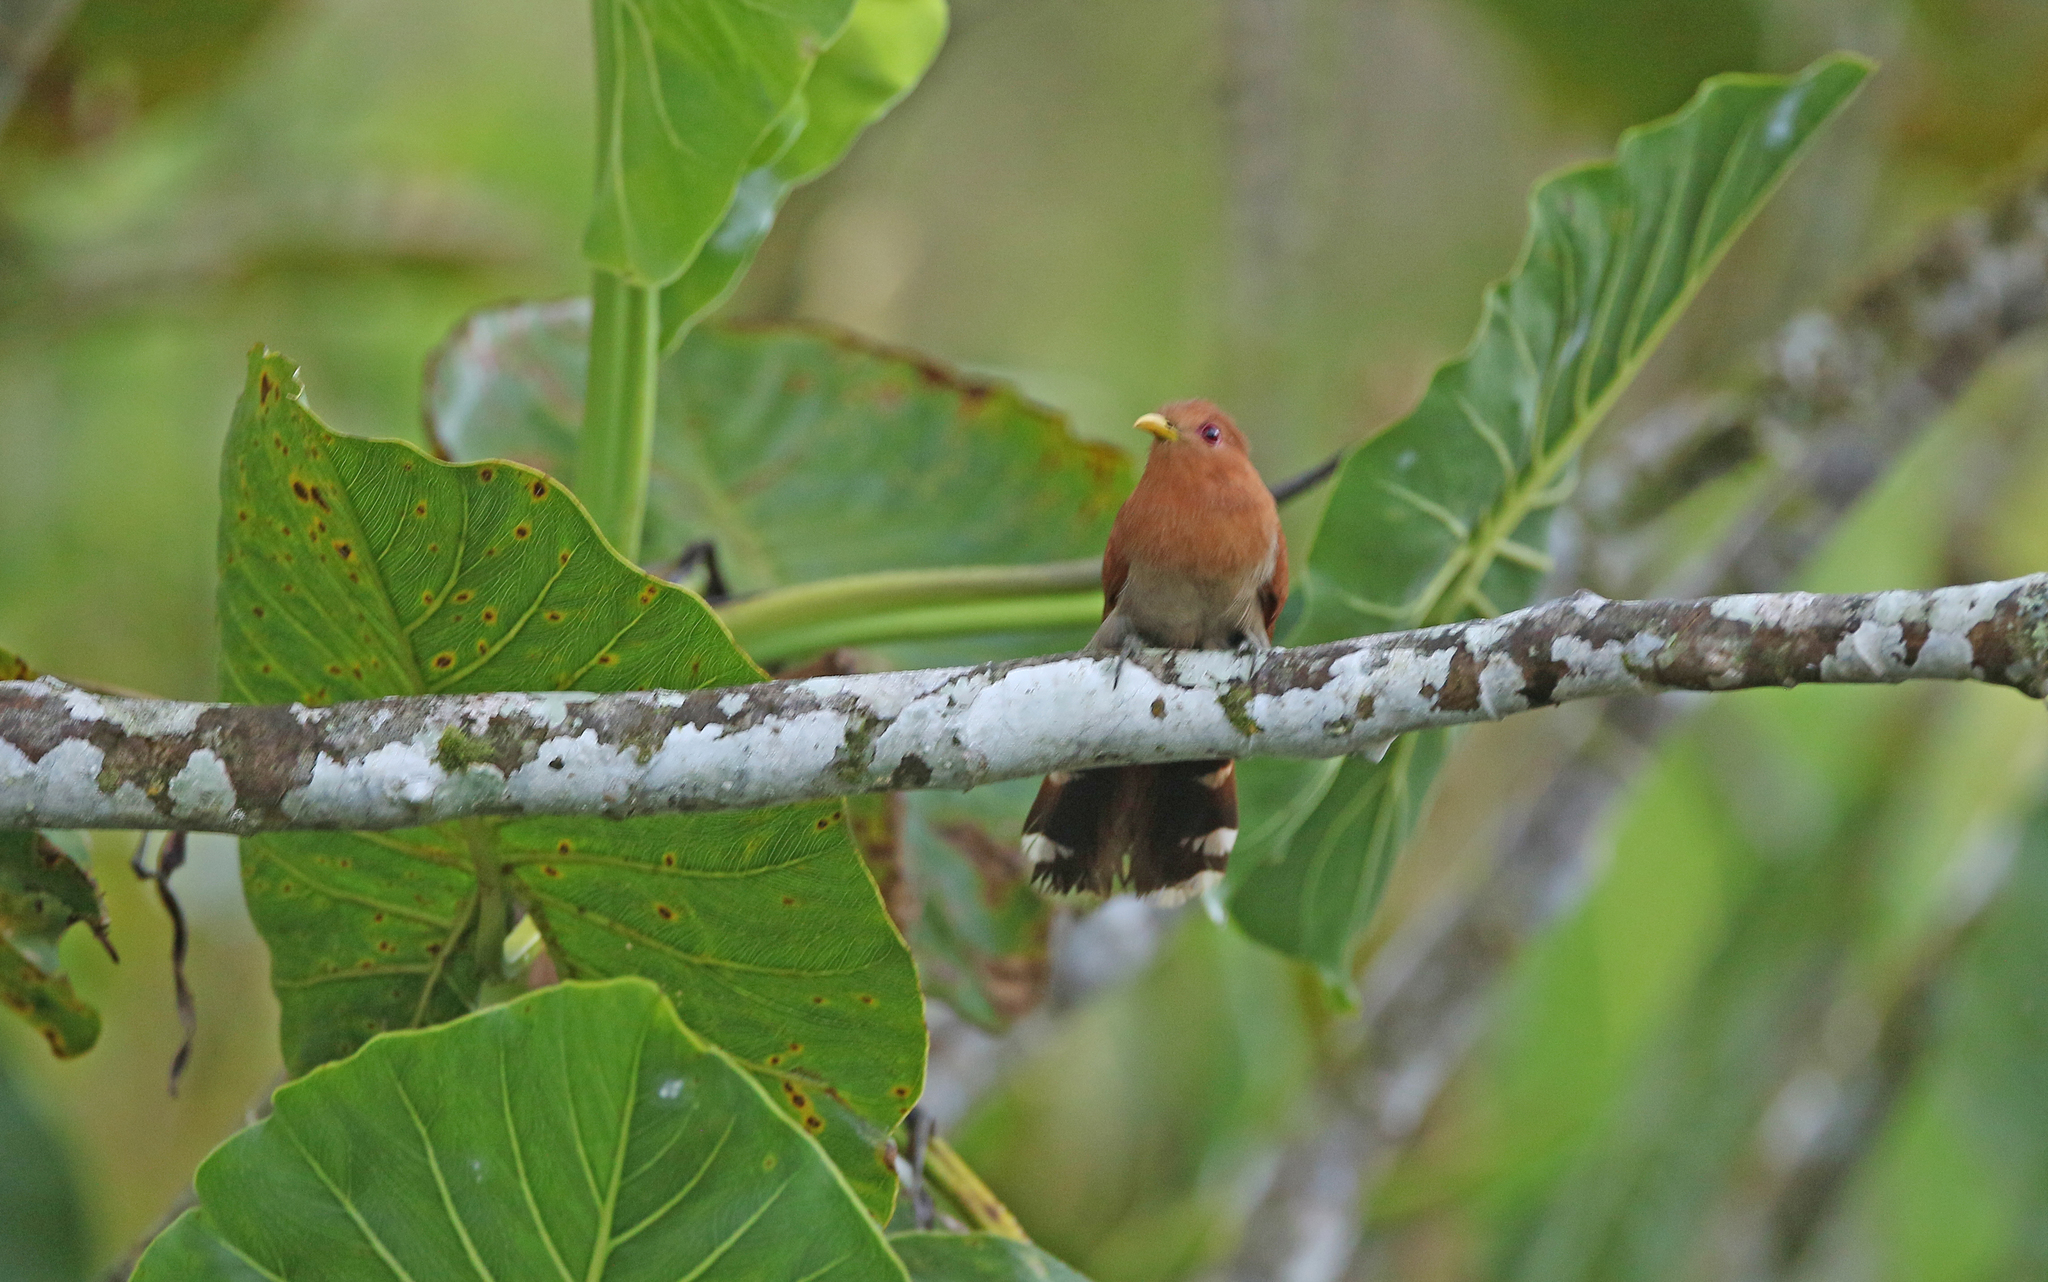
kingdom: Animalia
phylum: Chordata
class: Aves
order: Cuculiformes
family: Cuculidae
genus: Piaya
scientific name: Piaya minuta
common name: Little cuckoo
